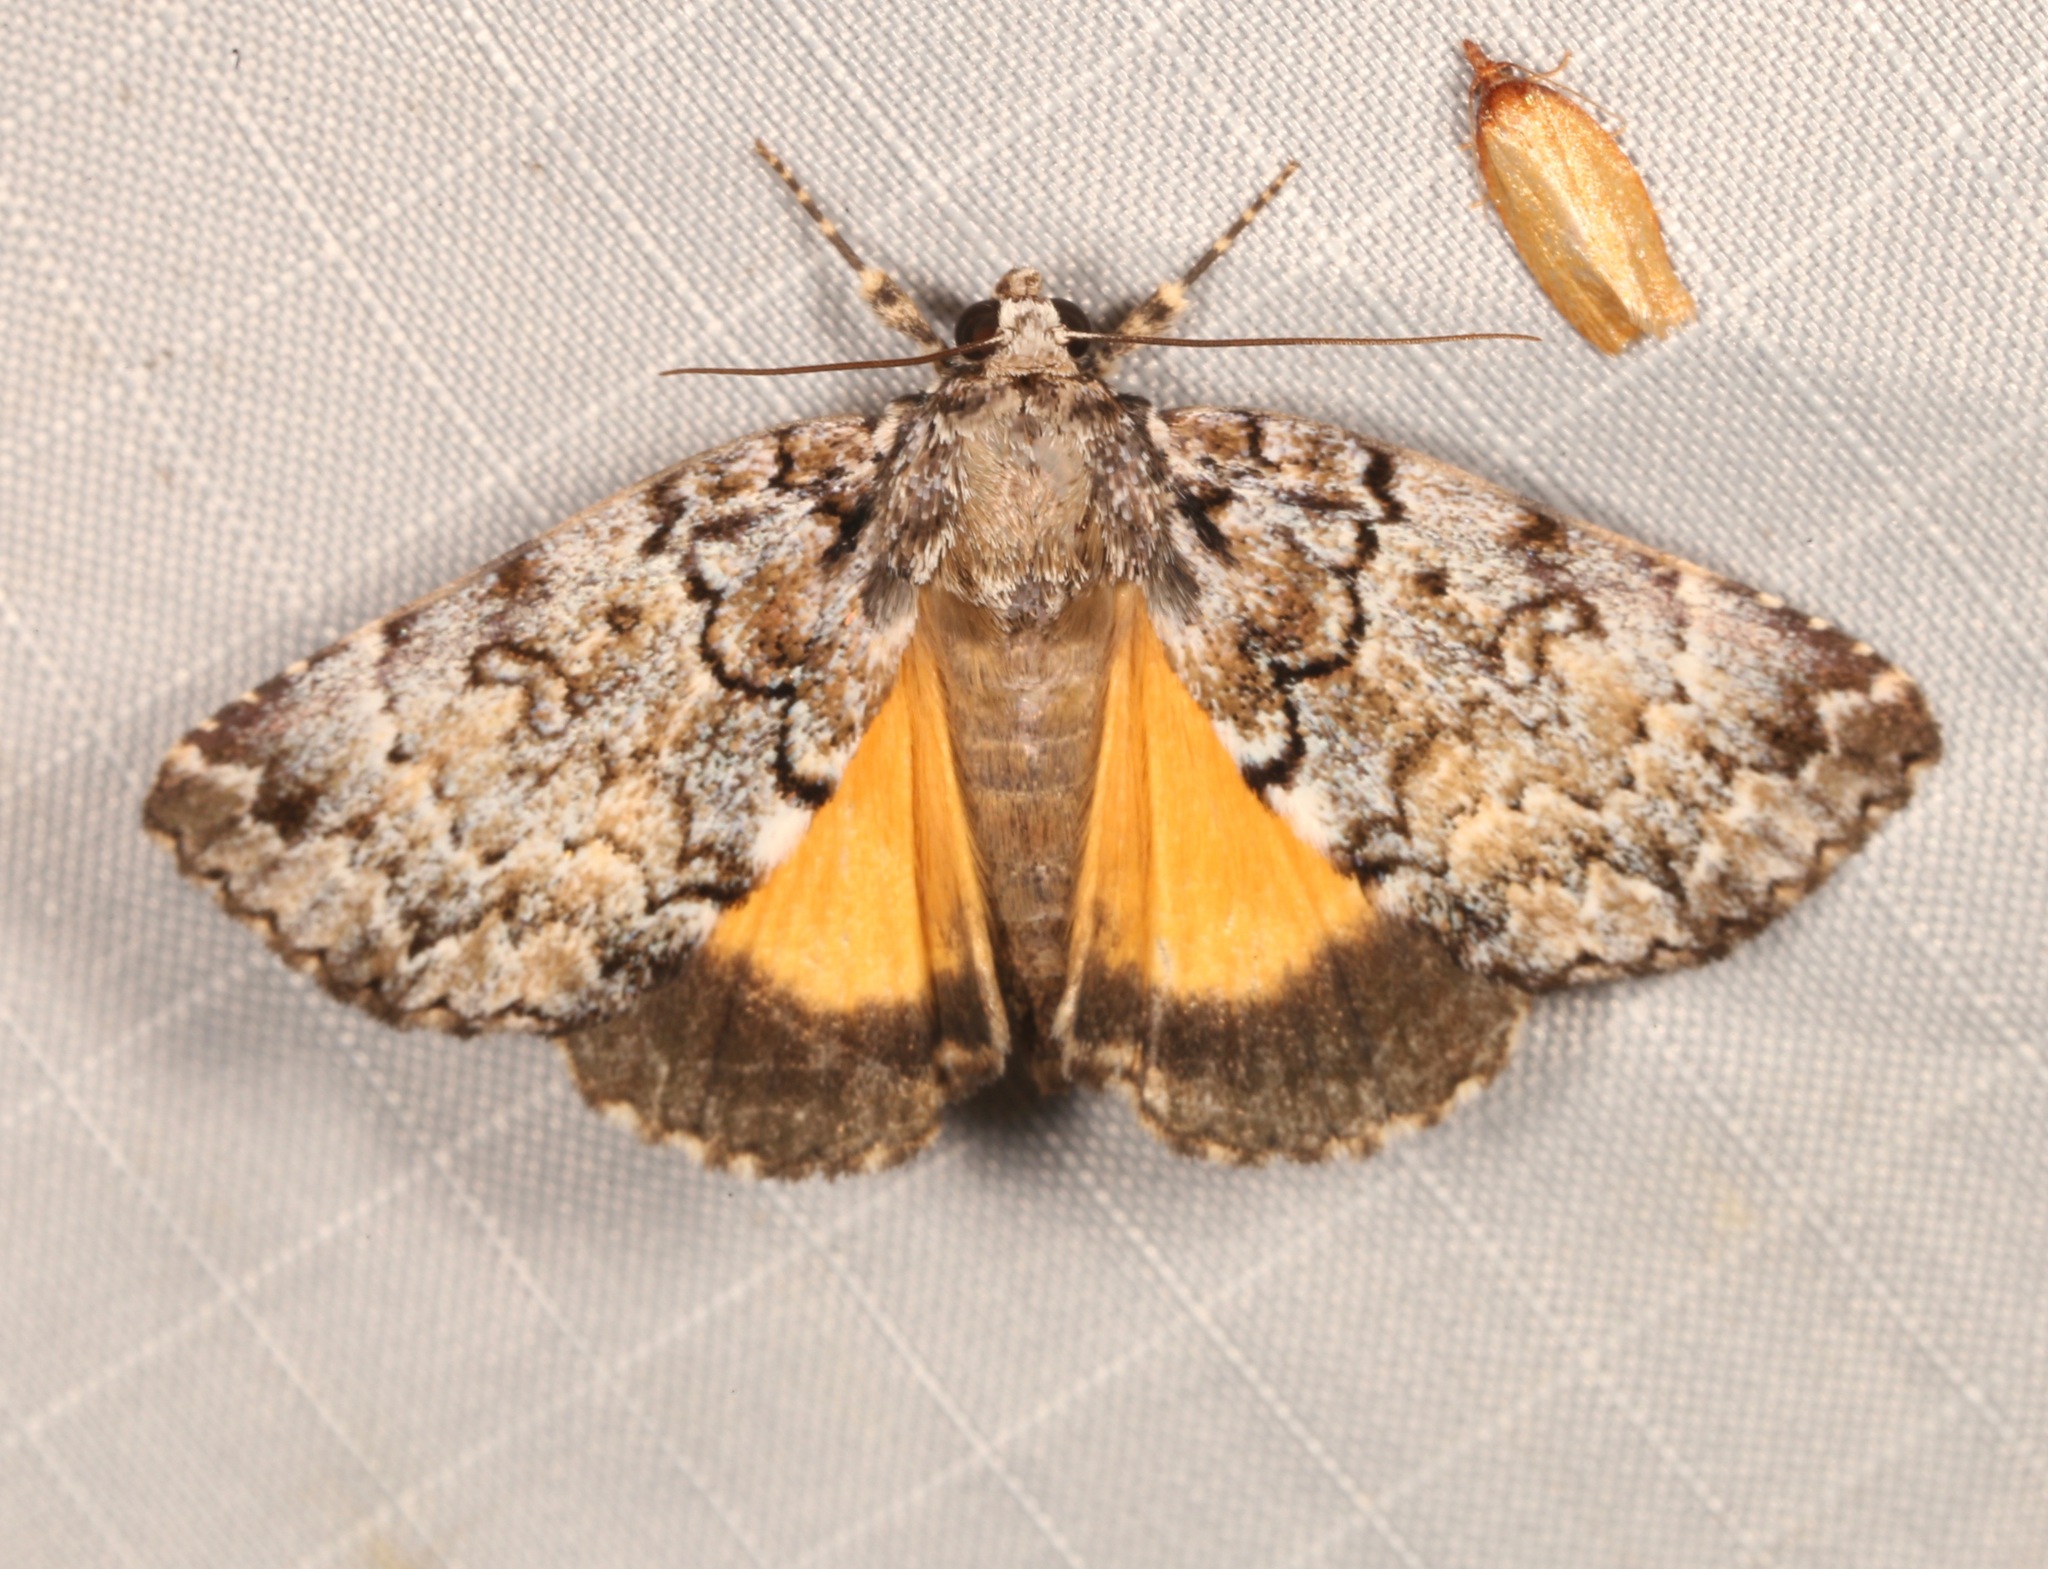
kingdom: Animalia
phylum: Arthropoda
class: Insecta
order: Lepidoptera
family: Erebidae
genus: Allotria
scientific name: Allotria elonympha
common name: False underwing
